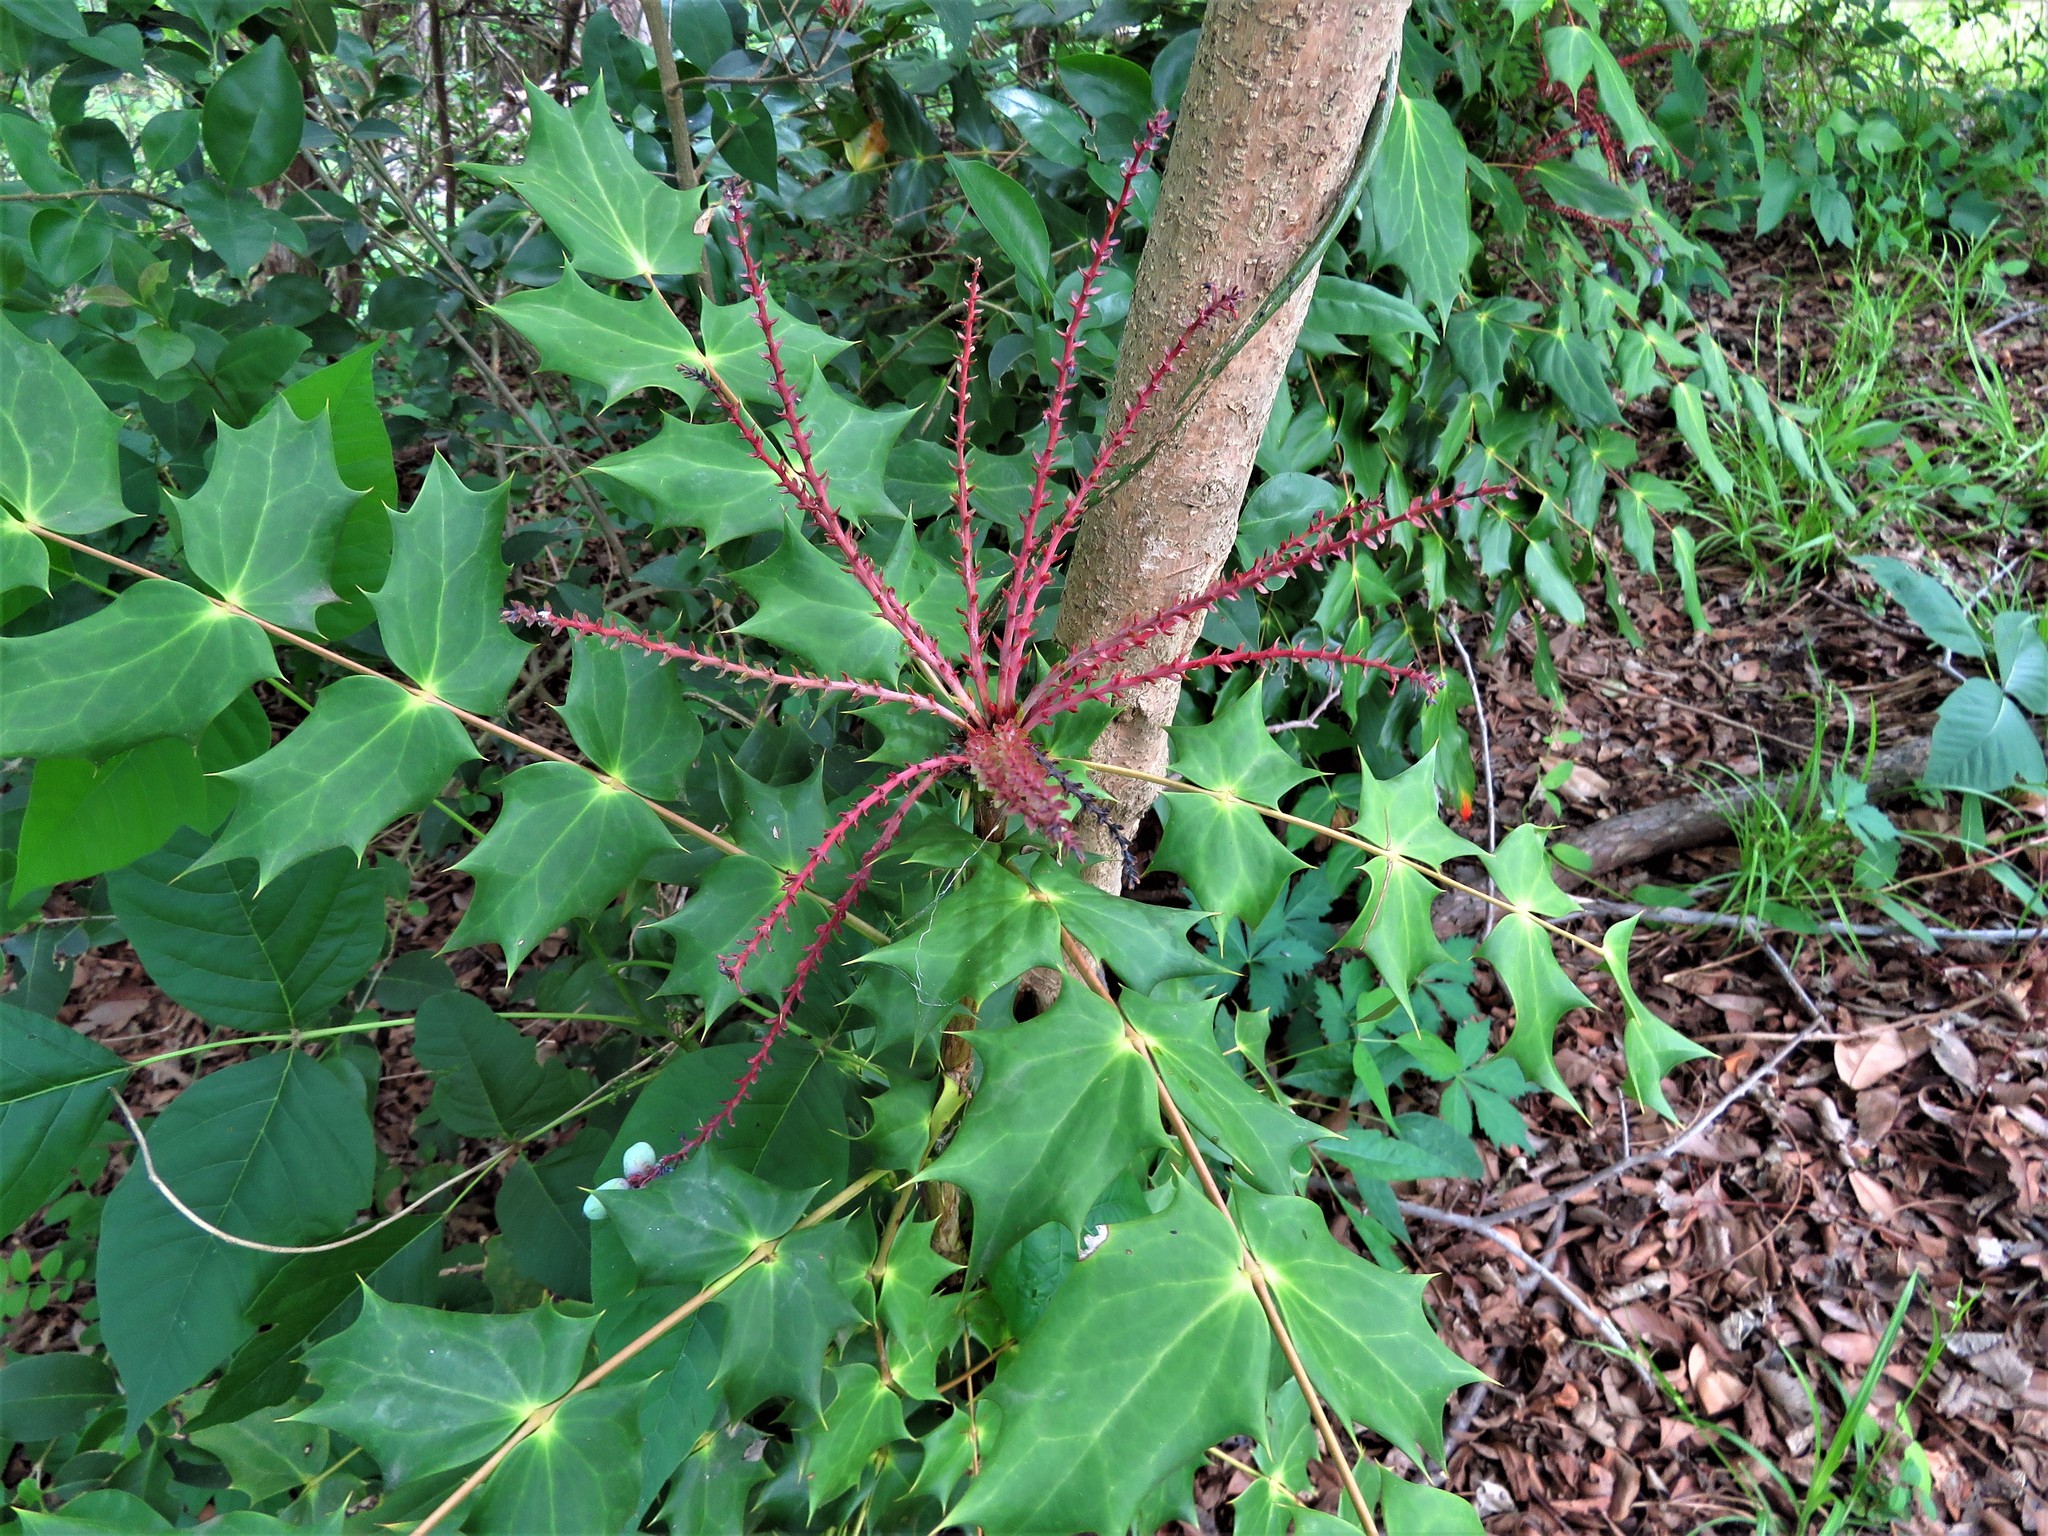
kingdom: Plantae
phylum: Tracheophyta
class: Magnoliopsida
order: Ranunculales
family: Berberidaceae
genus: Mahonia
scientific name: Mahonia bealei
